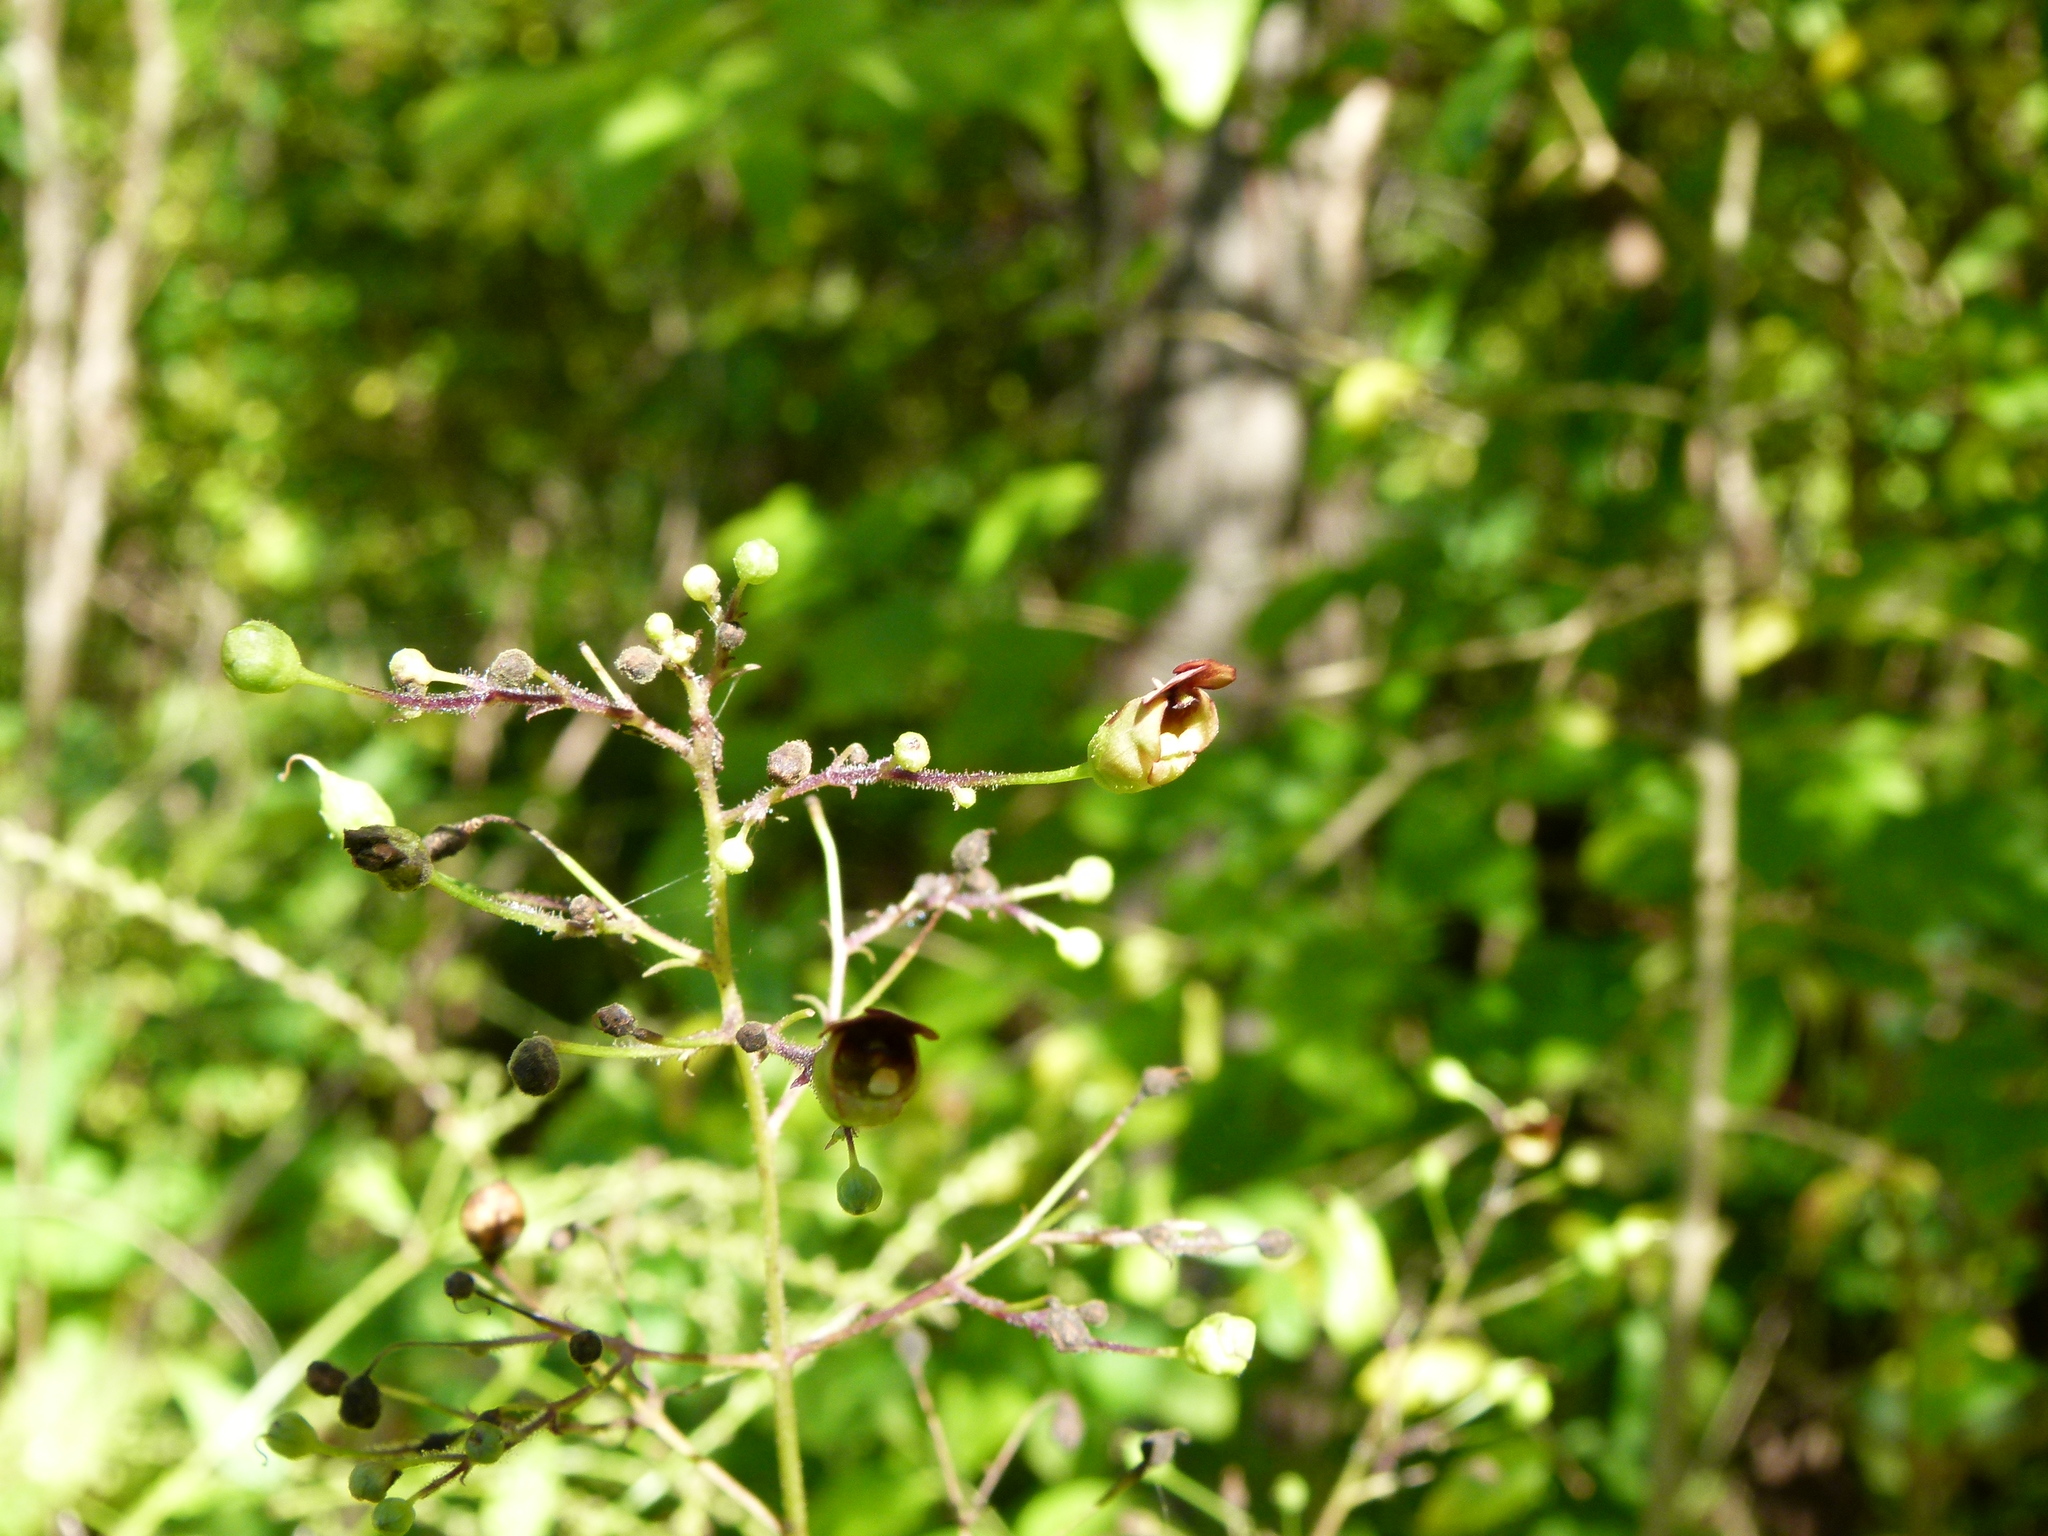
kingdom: Plantae
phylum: Tracheophyta
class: Magnoliopsida
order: Lamiales
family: Scrophulariaceae
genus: Scrophularia
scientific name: Scrophularia marilandica
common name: Eastern figwort
